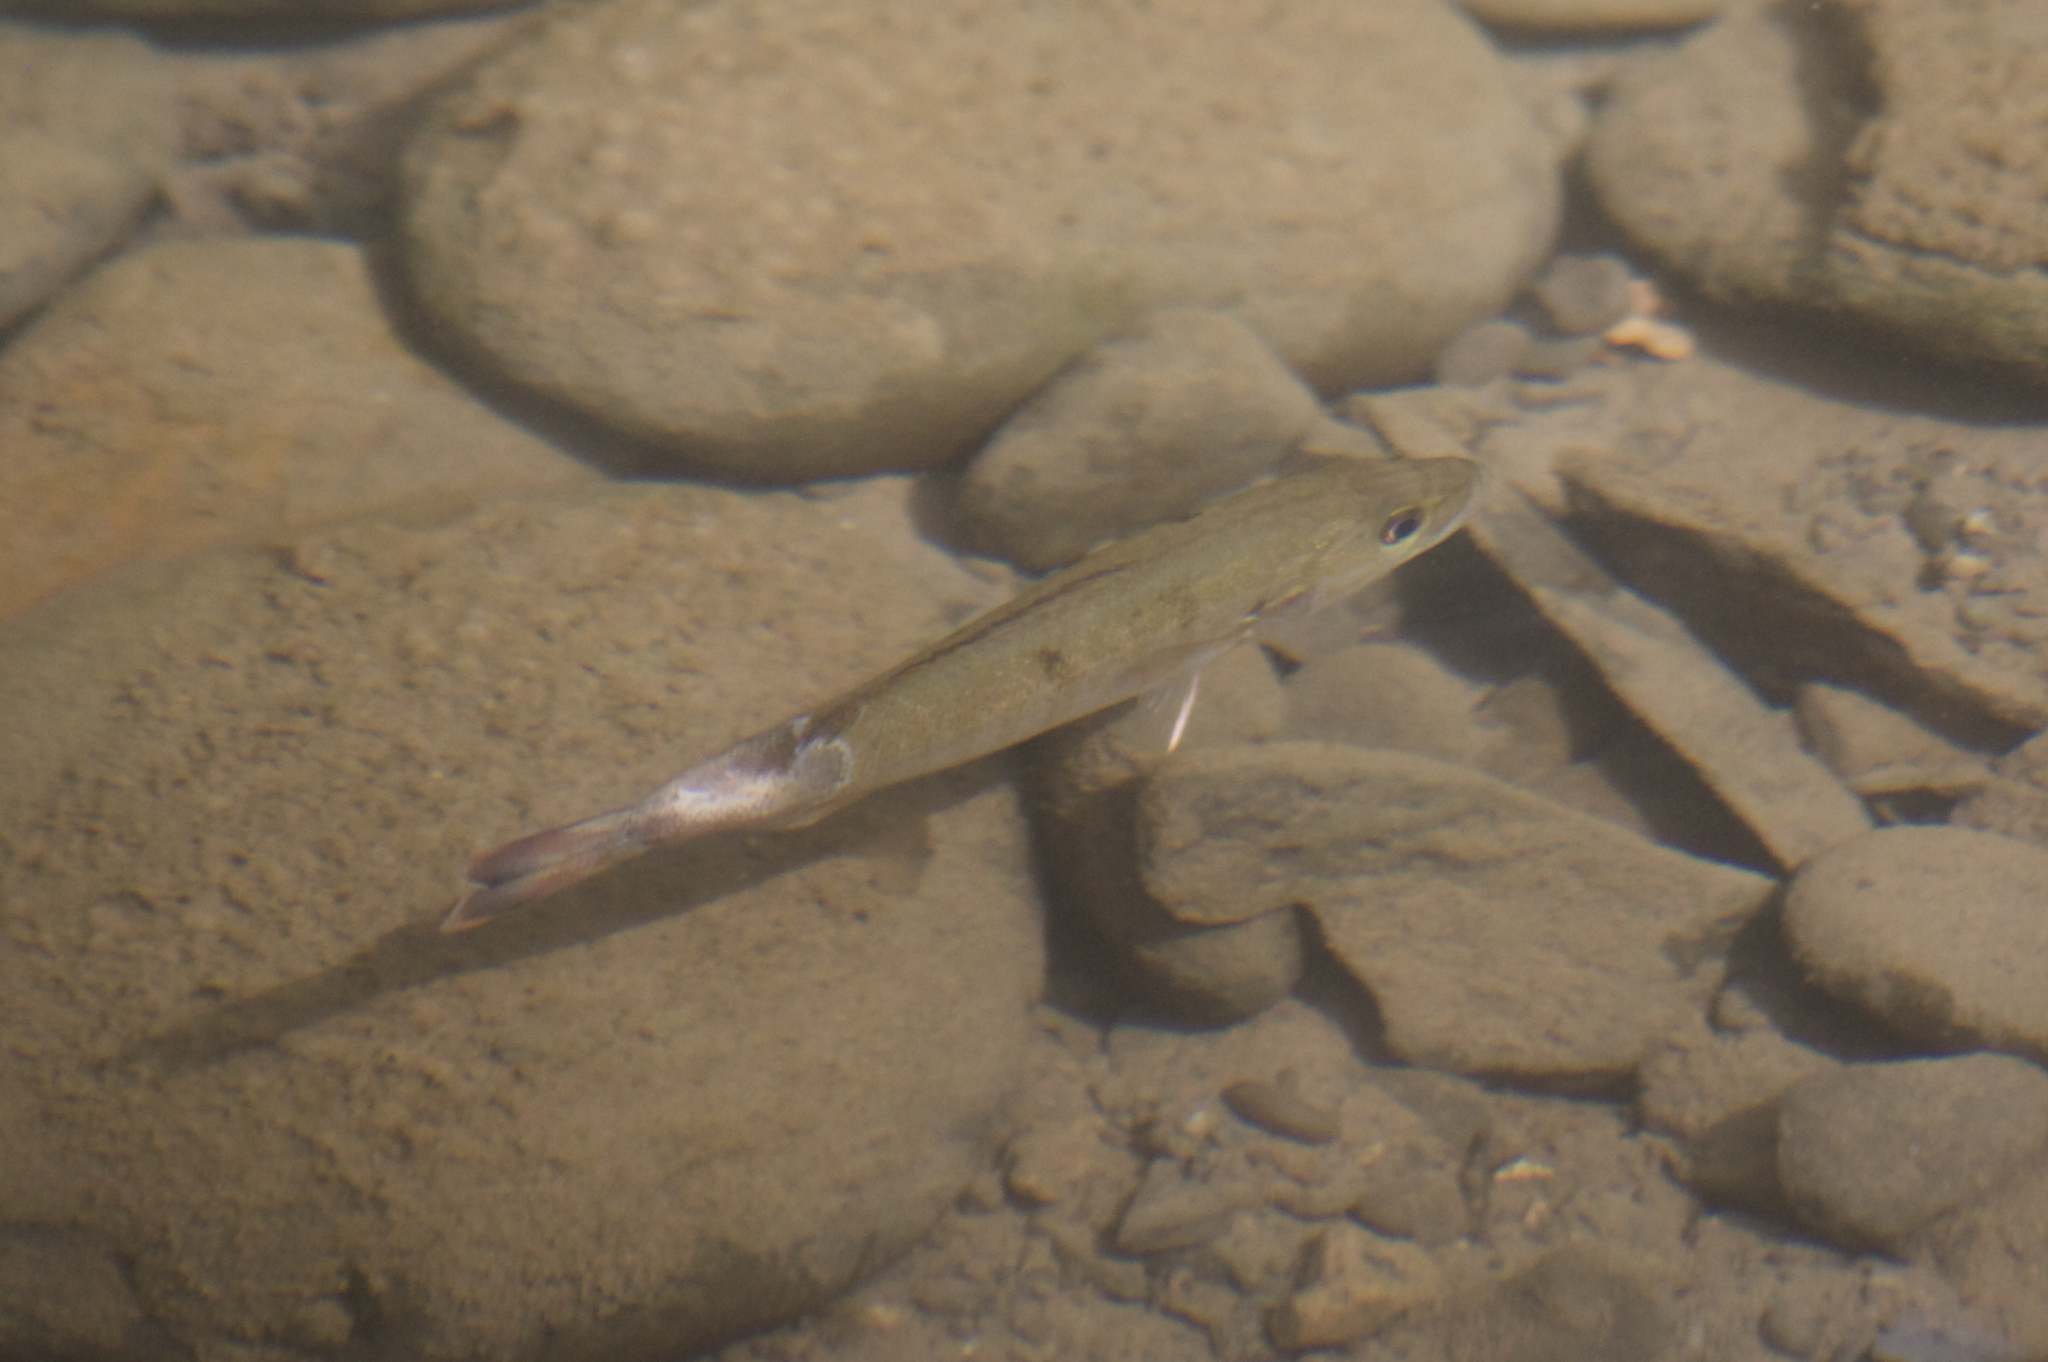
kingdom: Animalia
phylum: Chordata
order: Perciformes
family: Centrarchidae
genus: Micropterus
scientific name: Micropterus dolomieu
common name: Smallmouth bass
